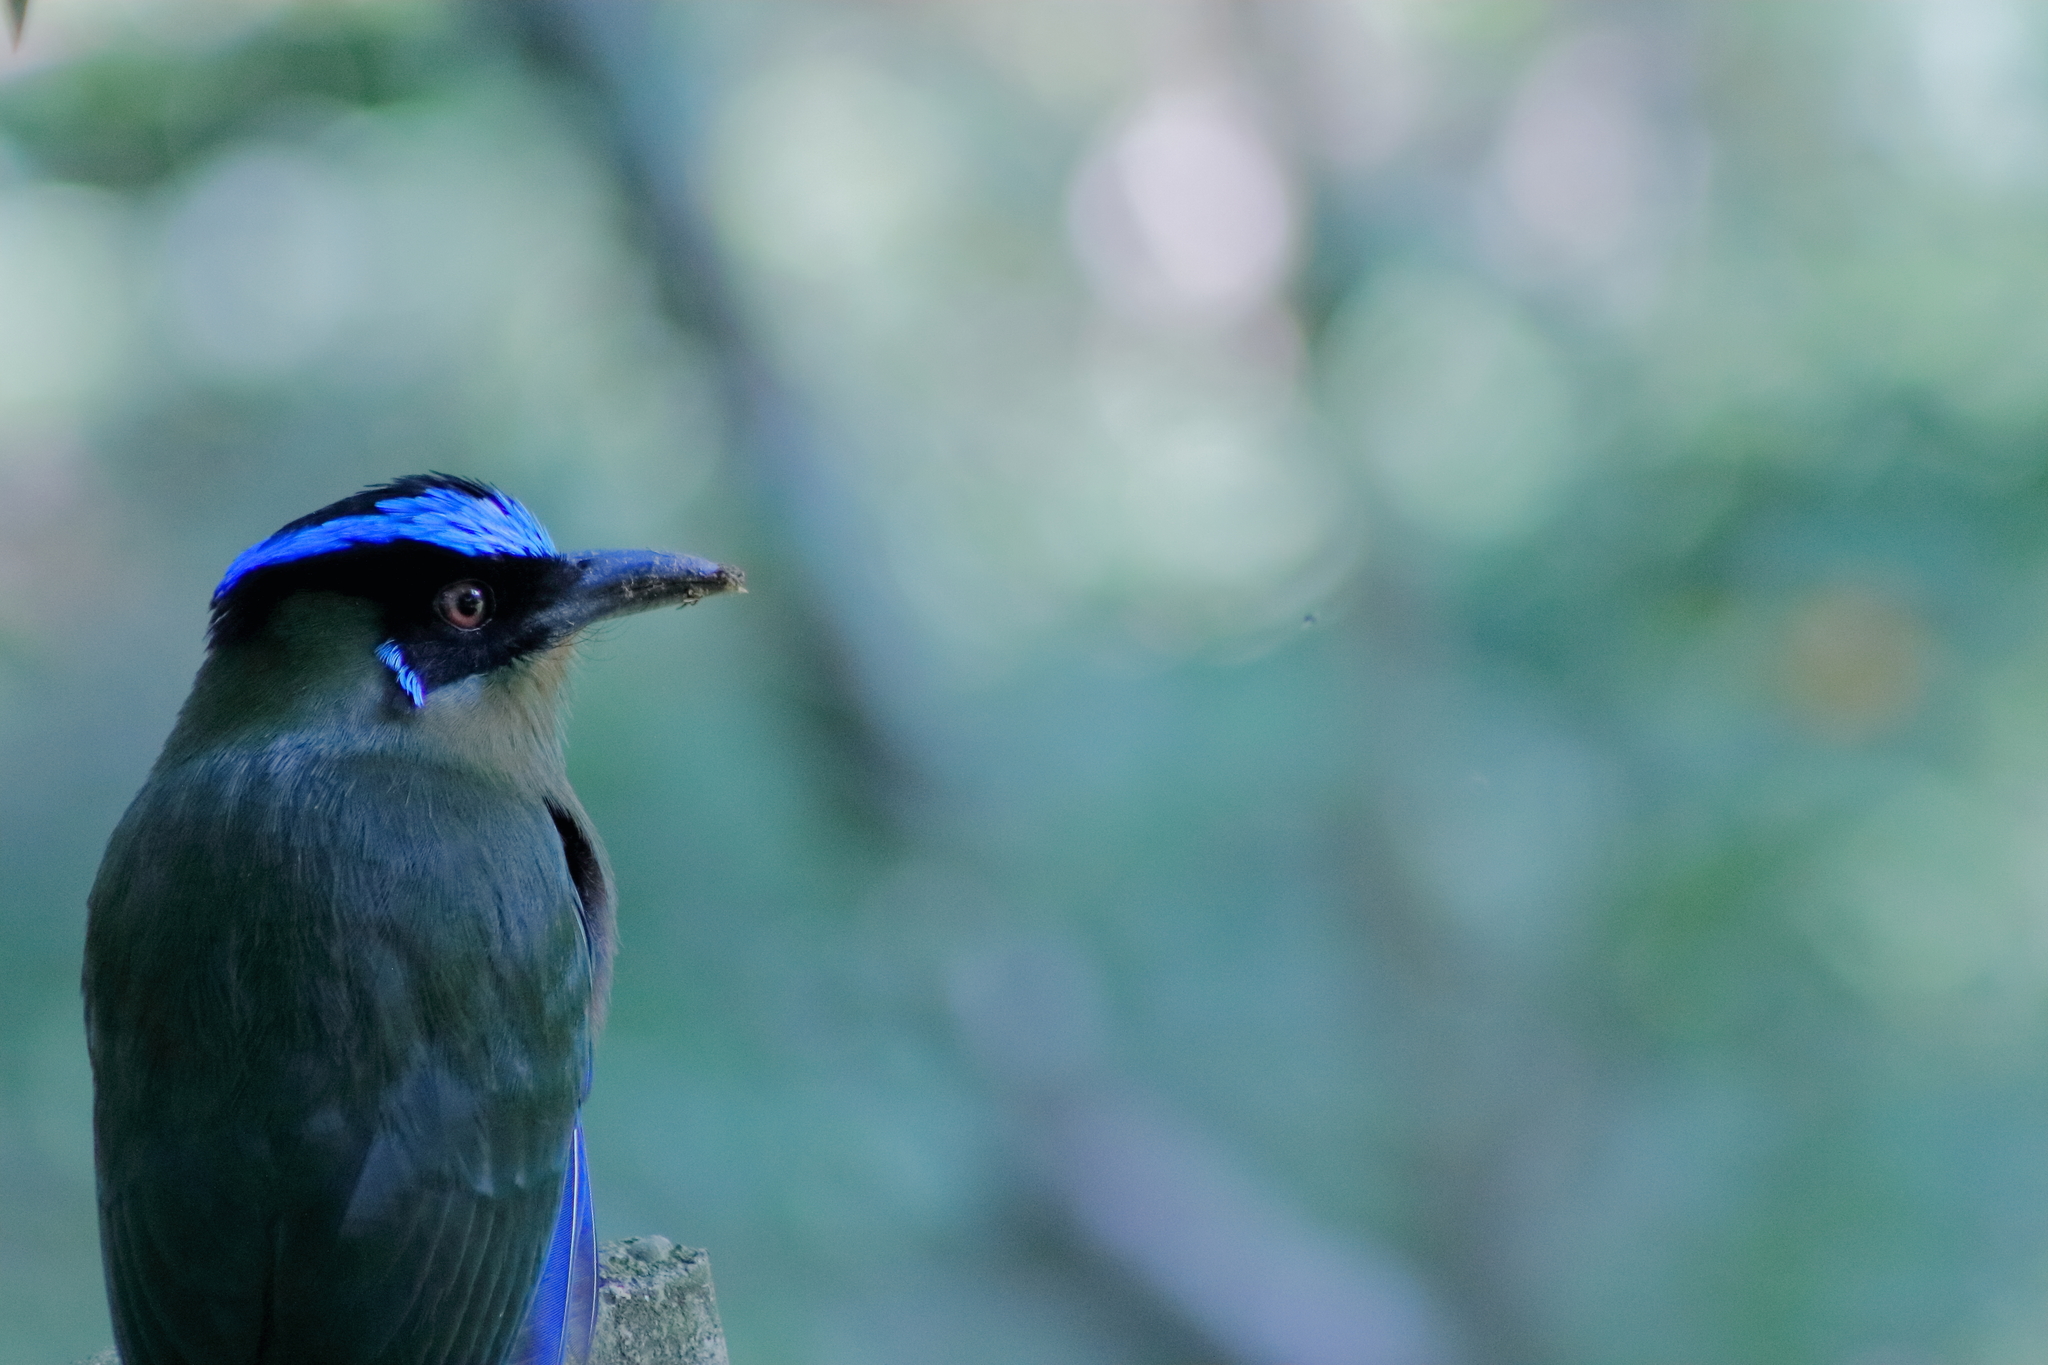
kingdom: Animalia
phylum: Chordata
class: Aves
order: Coraciiformes
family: Momotidae
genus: Momotus
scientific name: Momotus aequatorialis
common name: Andean motmot
